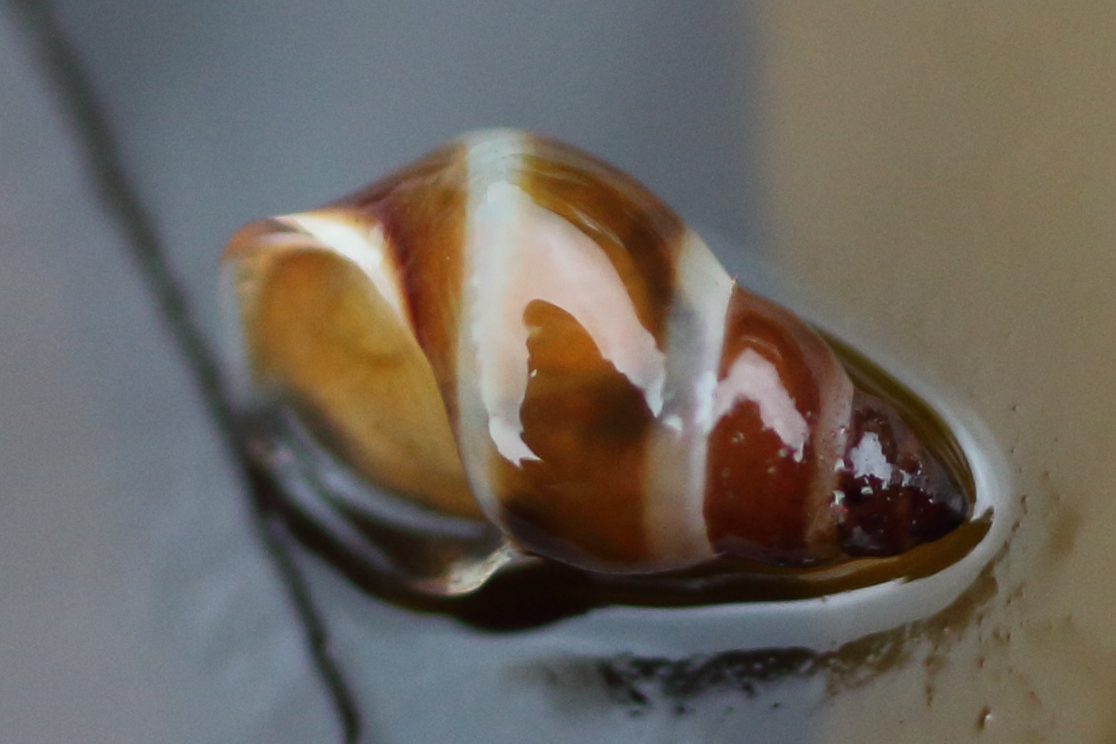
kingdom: Animalia
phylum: Mollusca
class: Gastropoda
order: Littorinimorpha
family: Littorinidae
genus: Lacuna
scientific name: Lacuna vincta
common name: Banded chink shell
